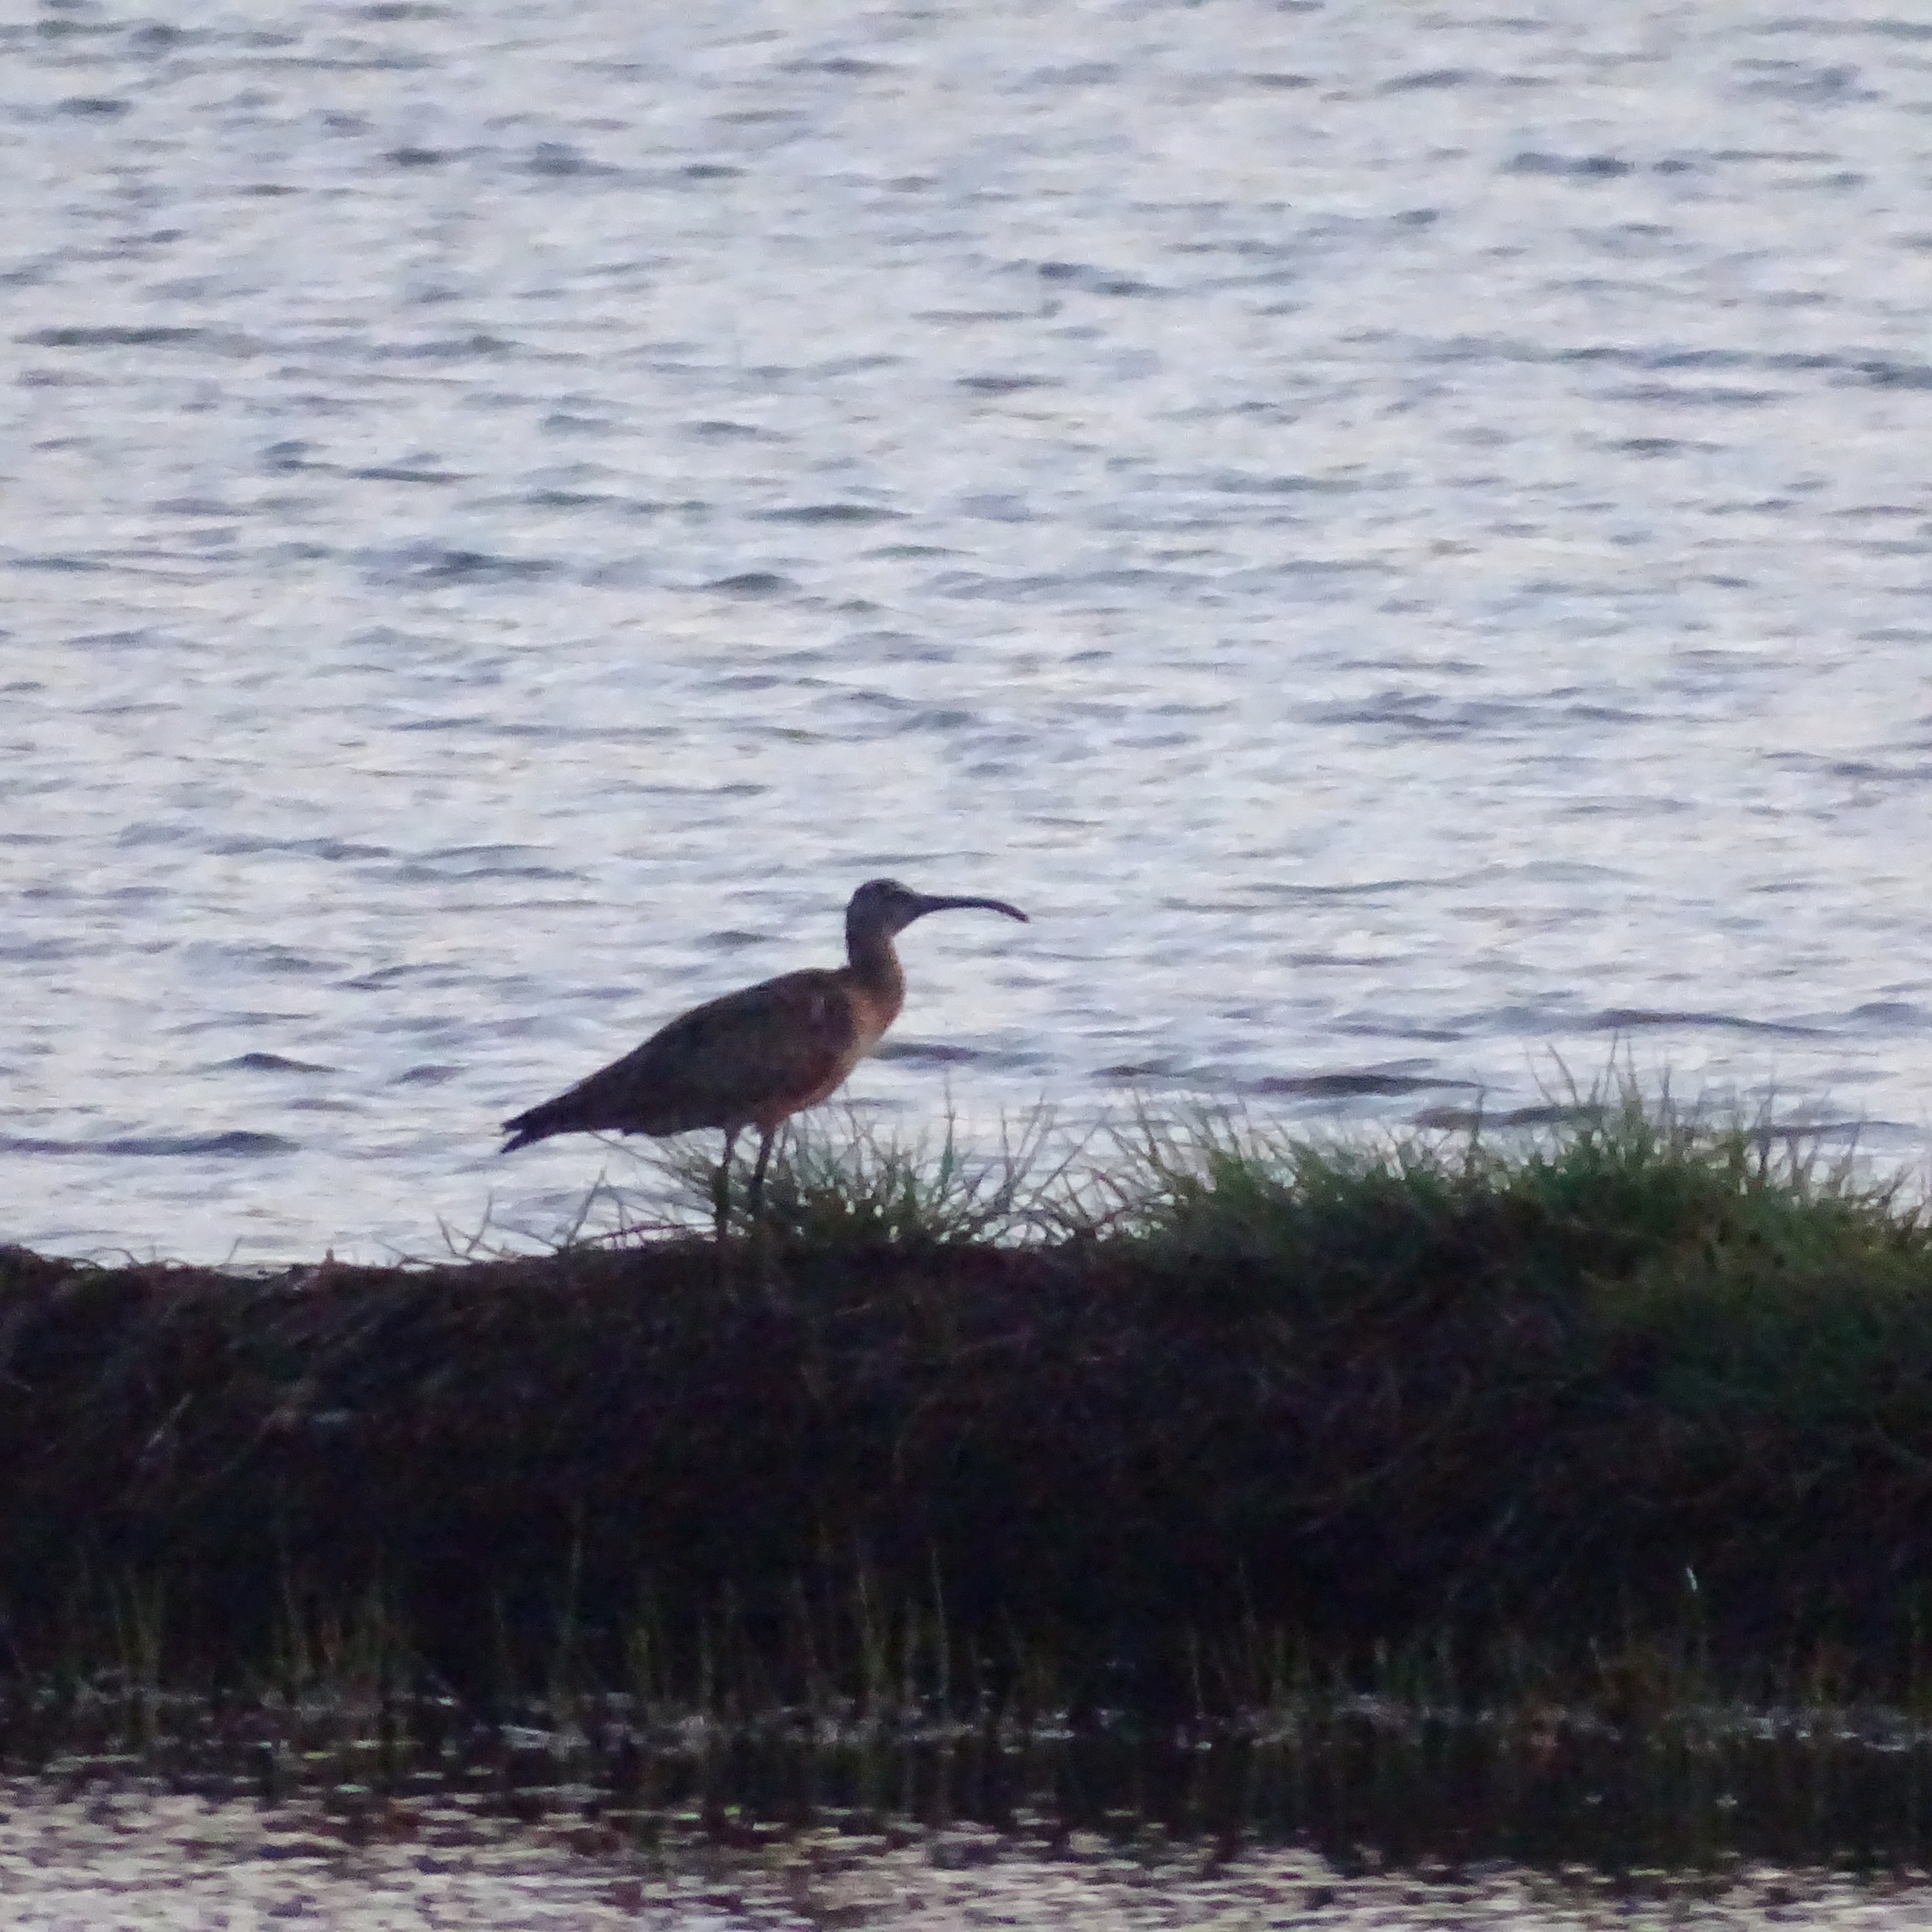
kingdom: Animalia
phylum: Chordata
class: Aves
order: Charadriiformes
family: Scolopacidae
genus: Numenius
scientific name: Numenius phaeopus
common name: Whimbrel
